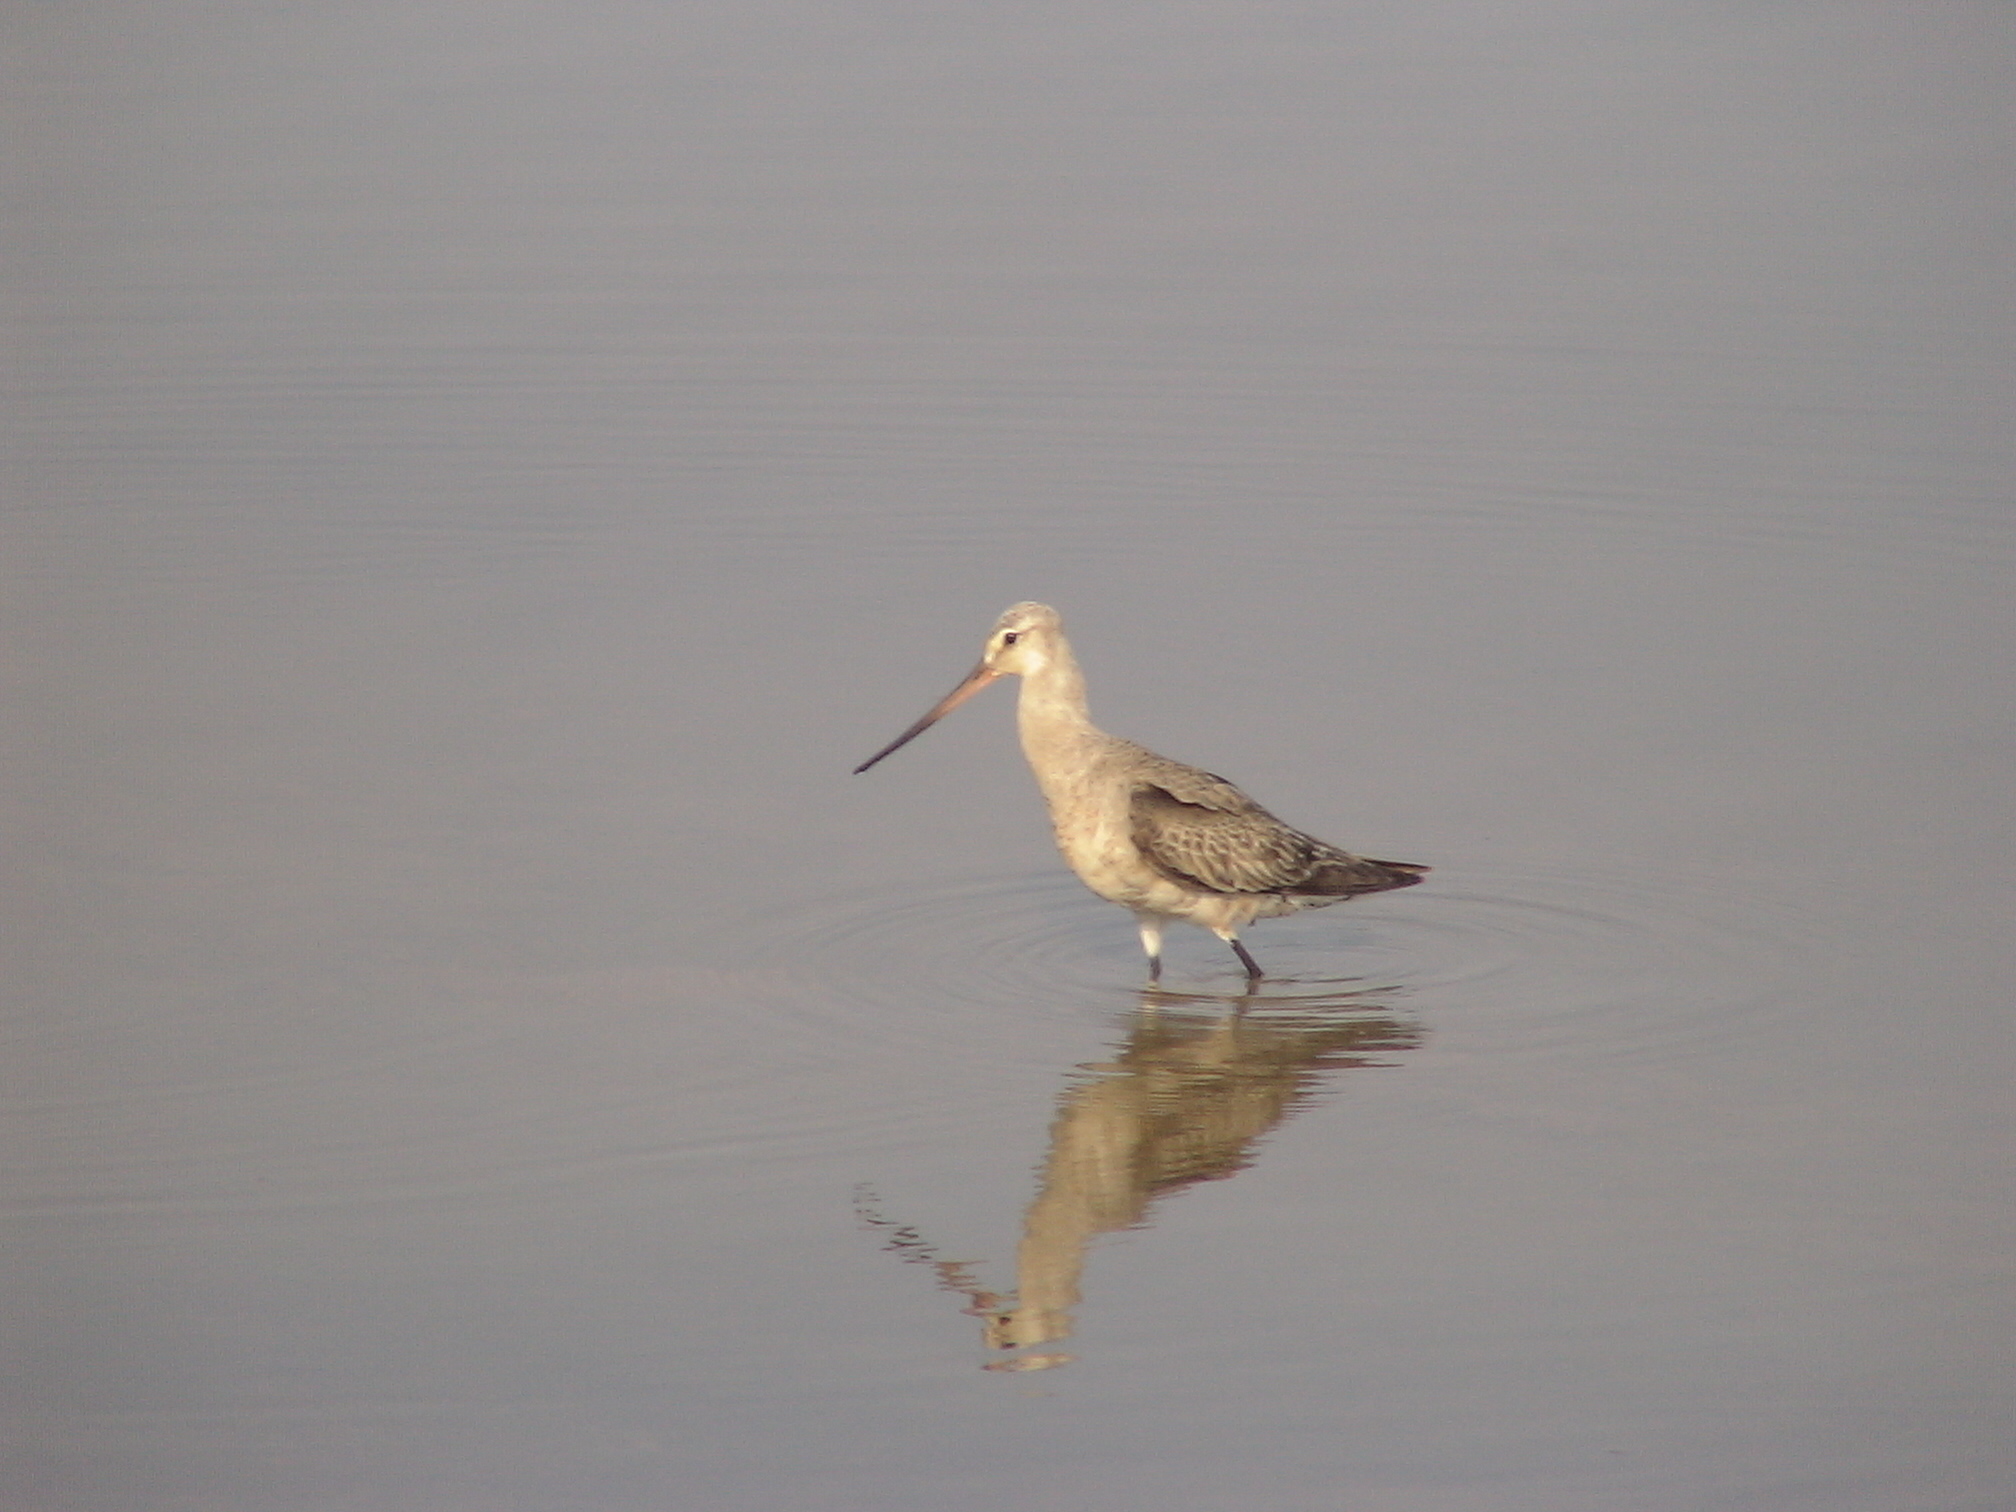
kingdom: Animalia
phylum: Chordata
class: Aves
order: Charadriiformes
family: Scolopacidae
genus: Limosa
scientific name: Limosa haemastica
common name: Hudsonian godwit
